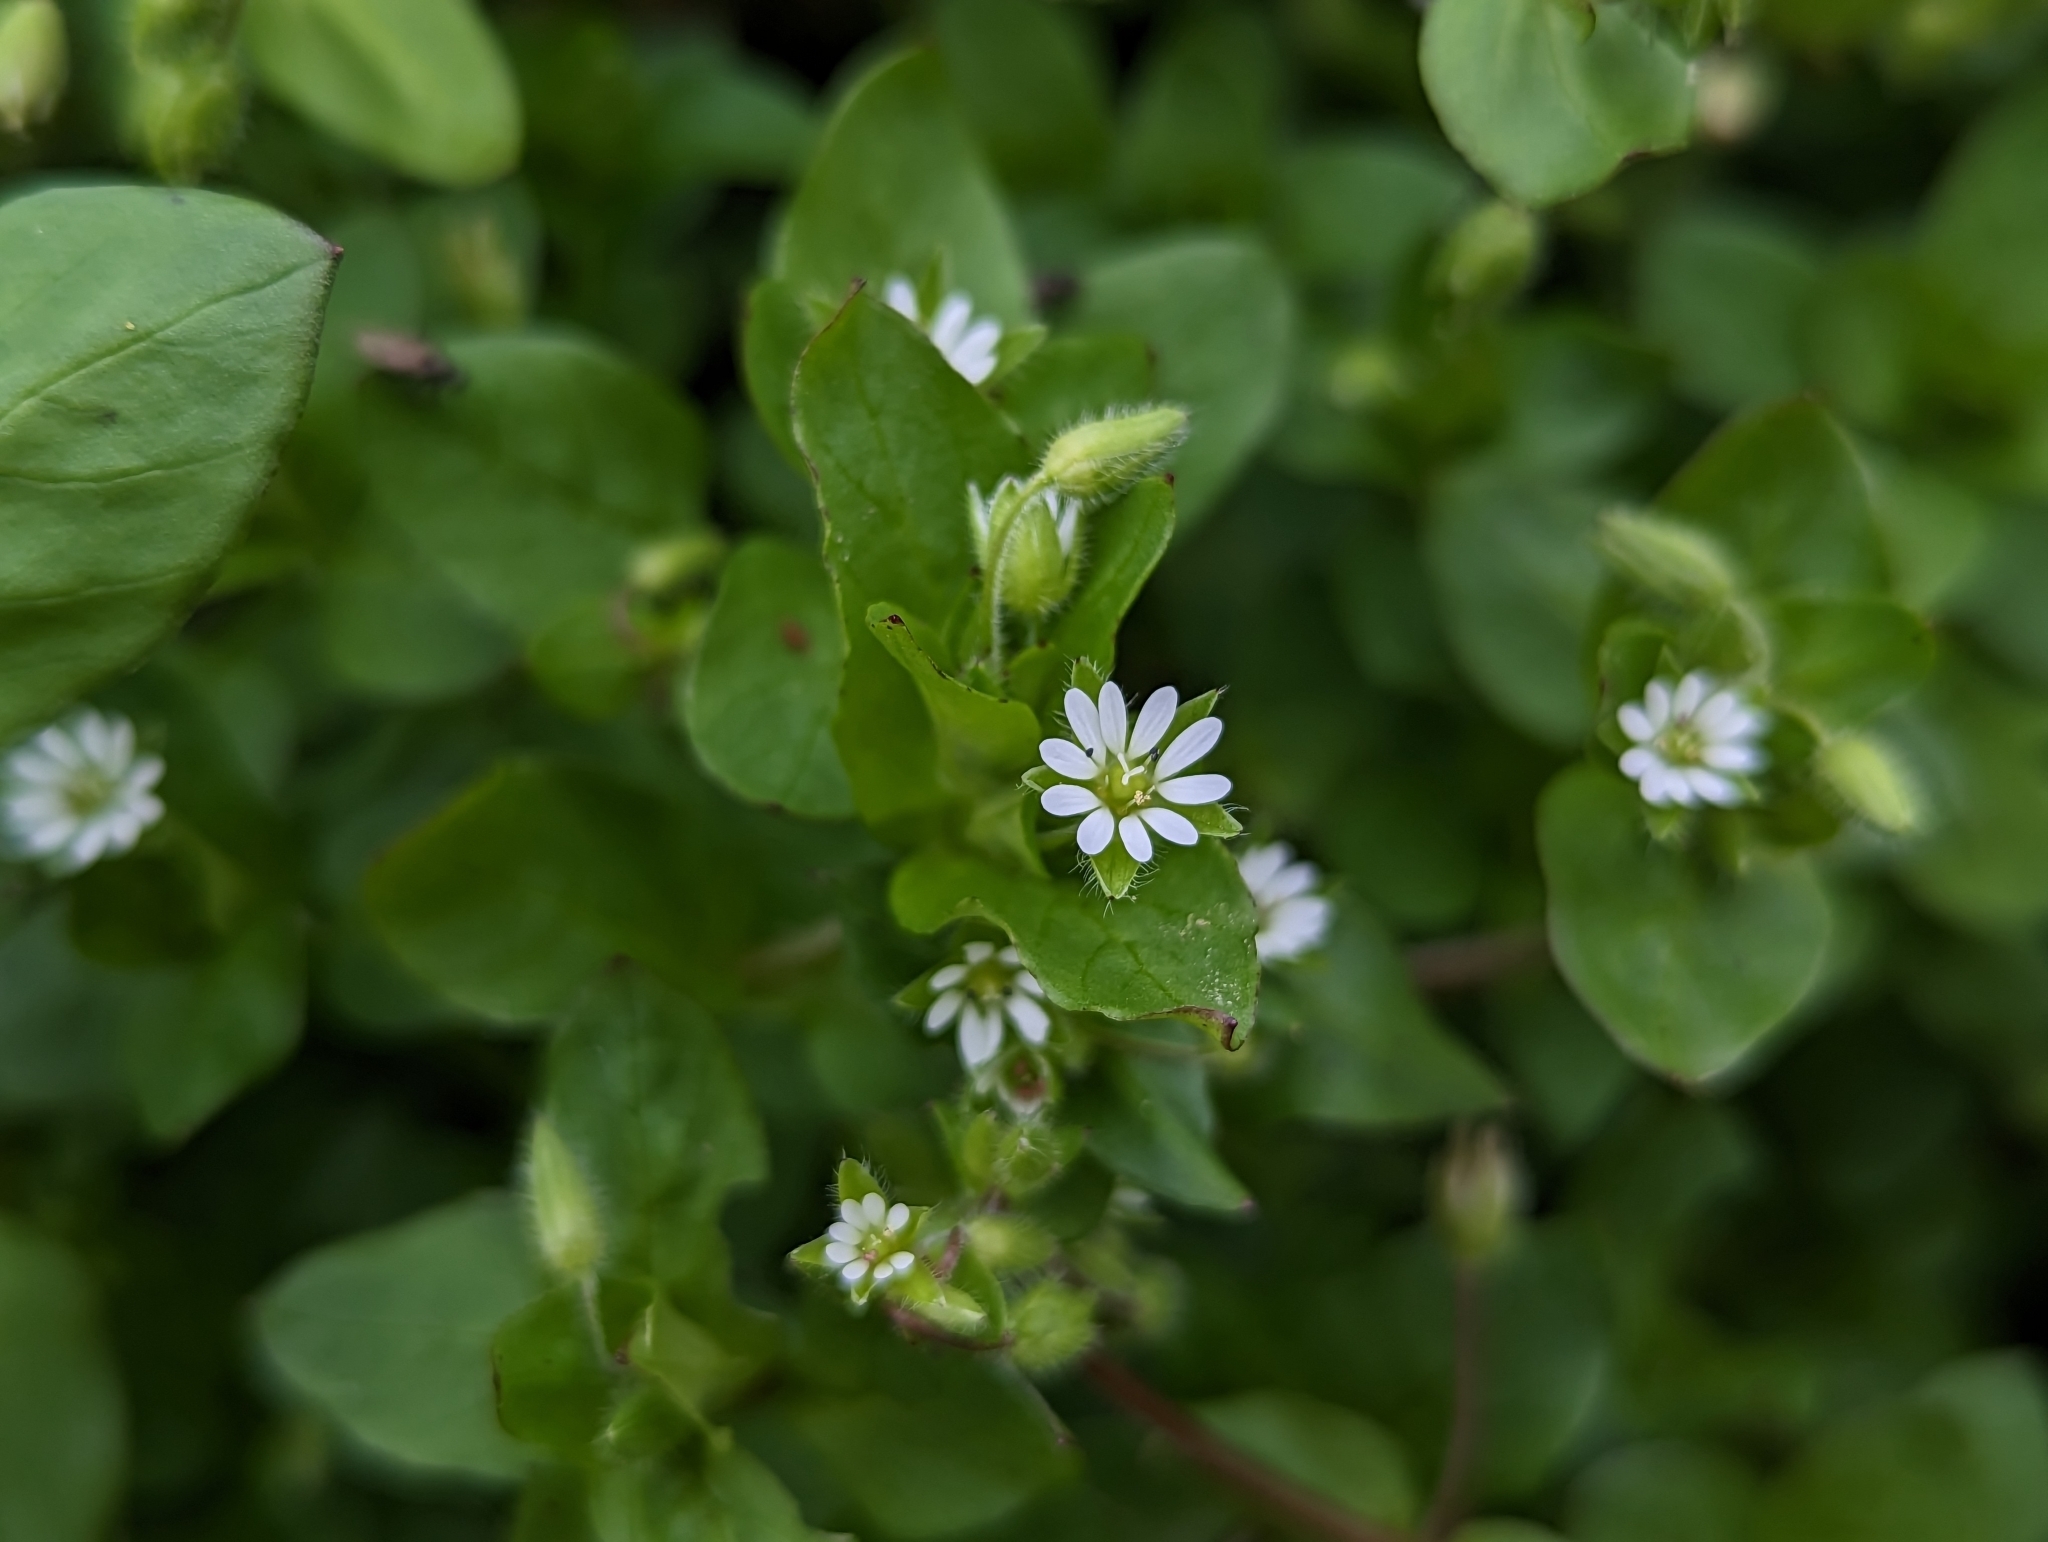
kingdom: Plantae
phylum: Tracheophyta
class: Magnoliopsida
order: Caryophyllales
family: Caryophyllaceae
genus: Stellaria
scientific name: Stellaria media
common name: Common chickweed
